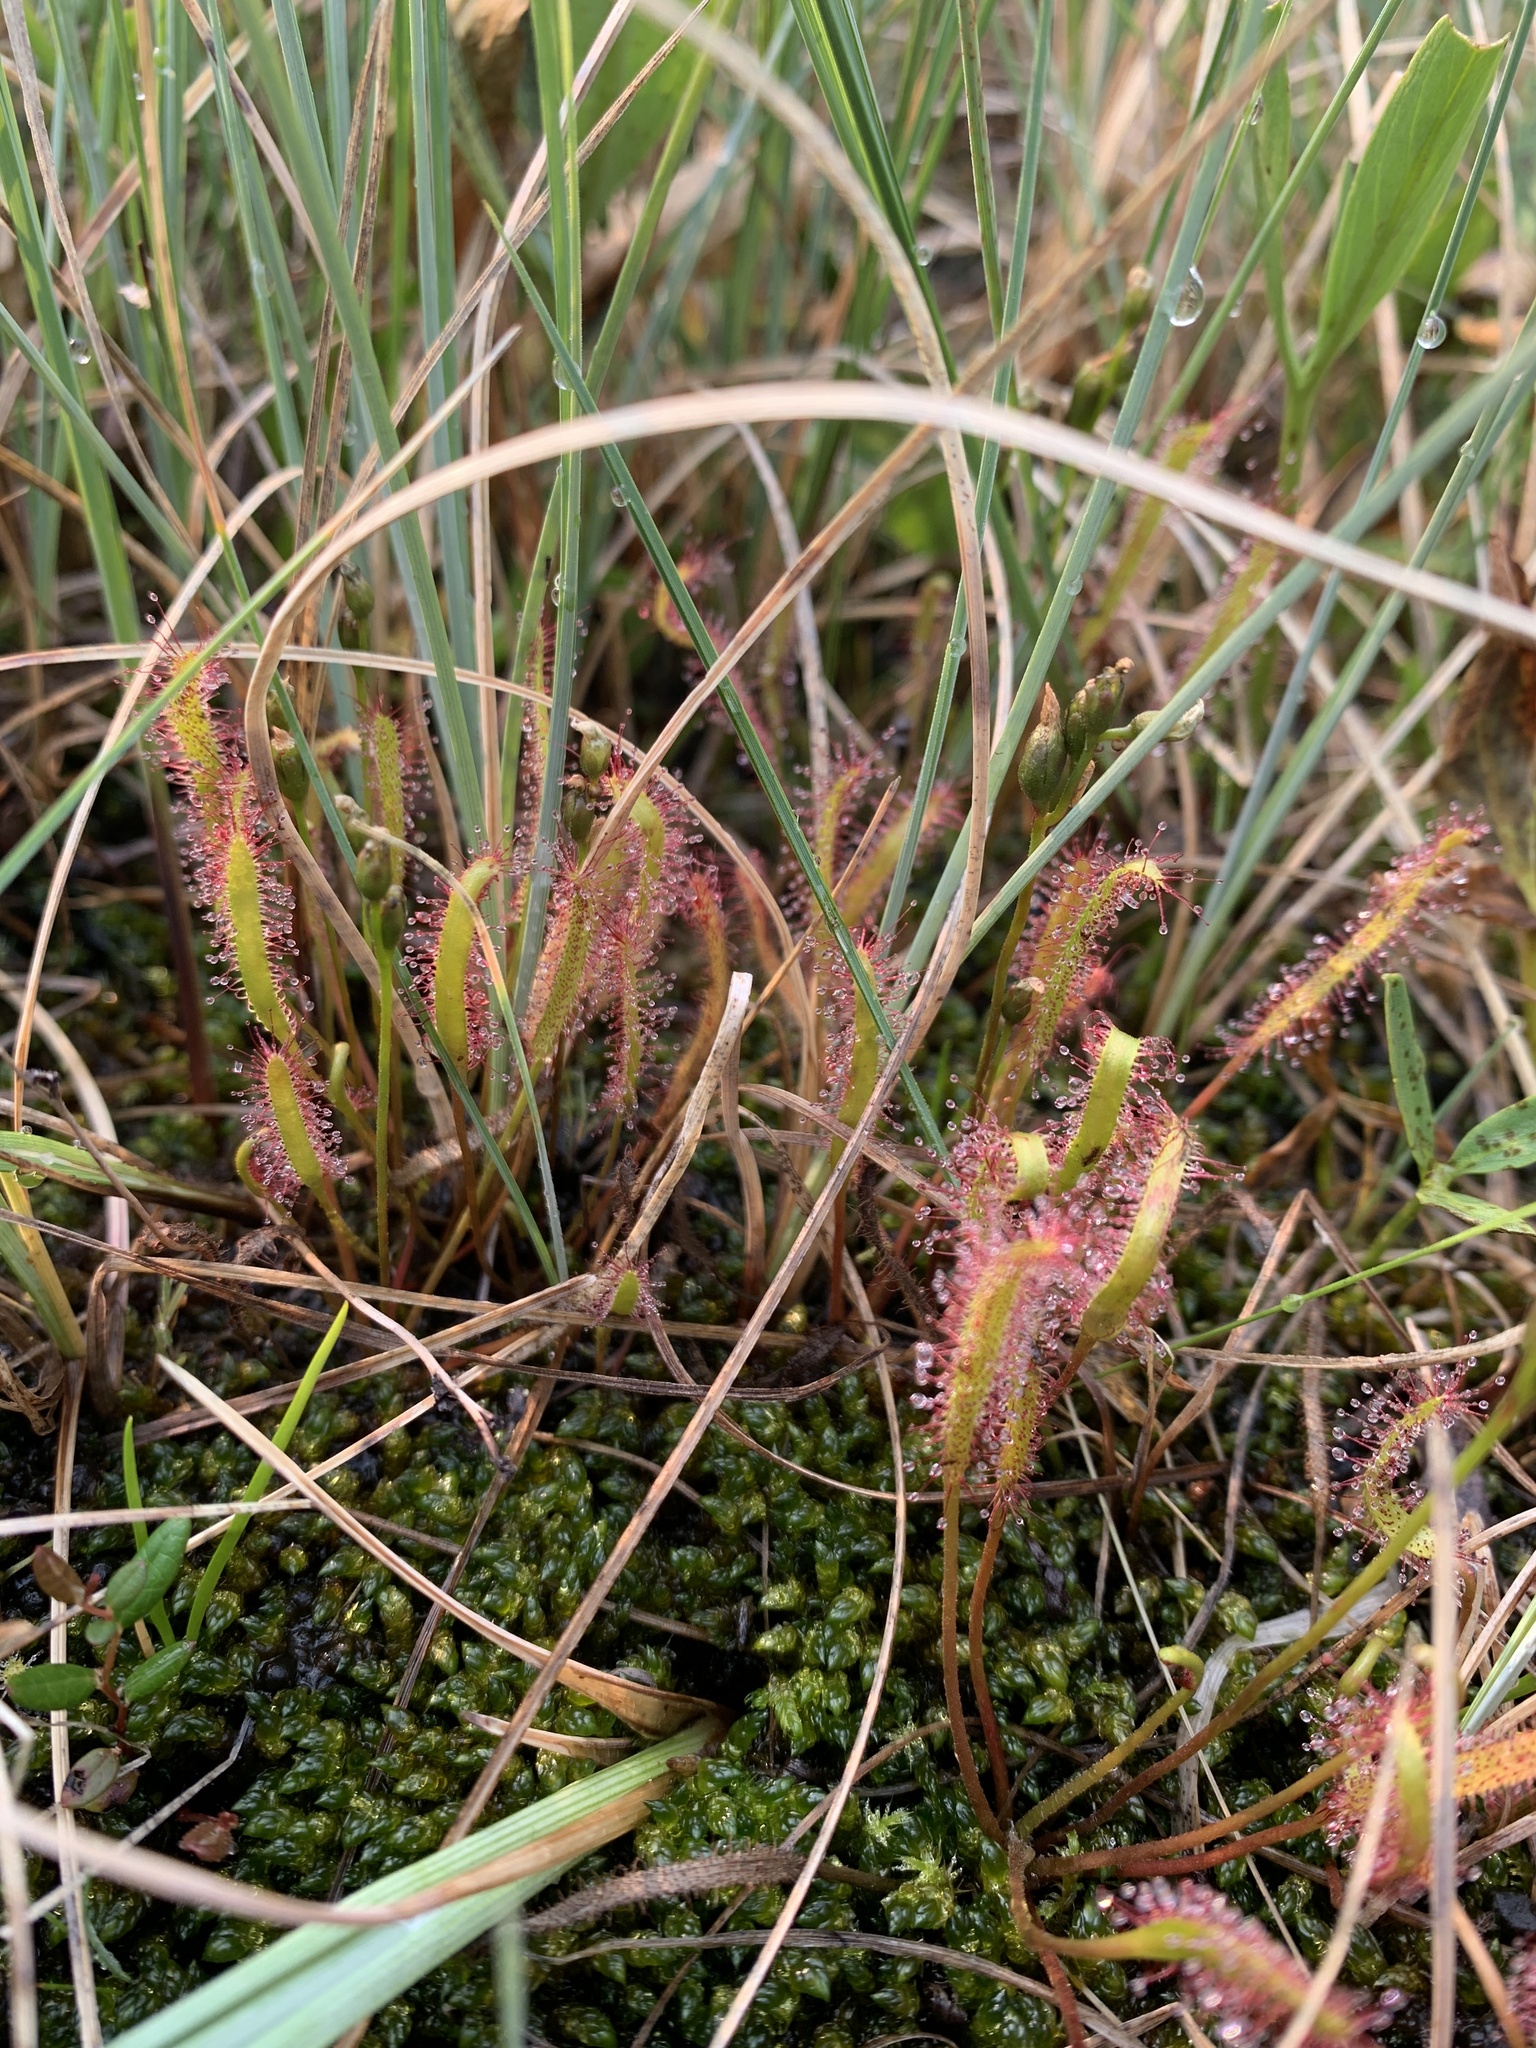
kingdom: Plantae
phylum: Tracheophyta
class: Magnoliopsida
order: Caryophyllales
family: Droseraceae
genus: Drosera
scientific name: Drosera linearis
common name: Linear-leaved sundew
